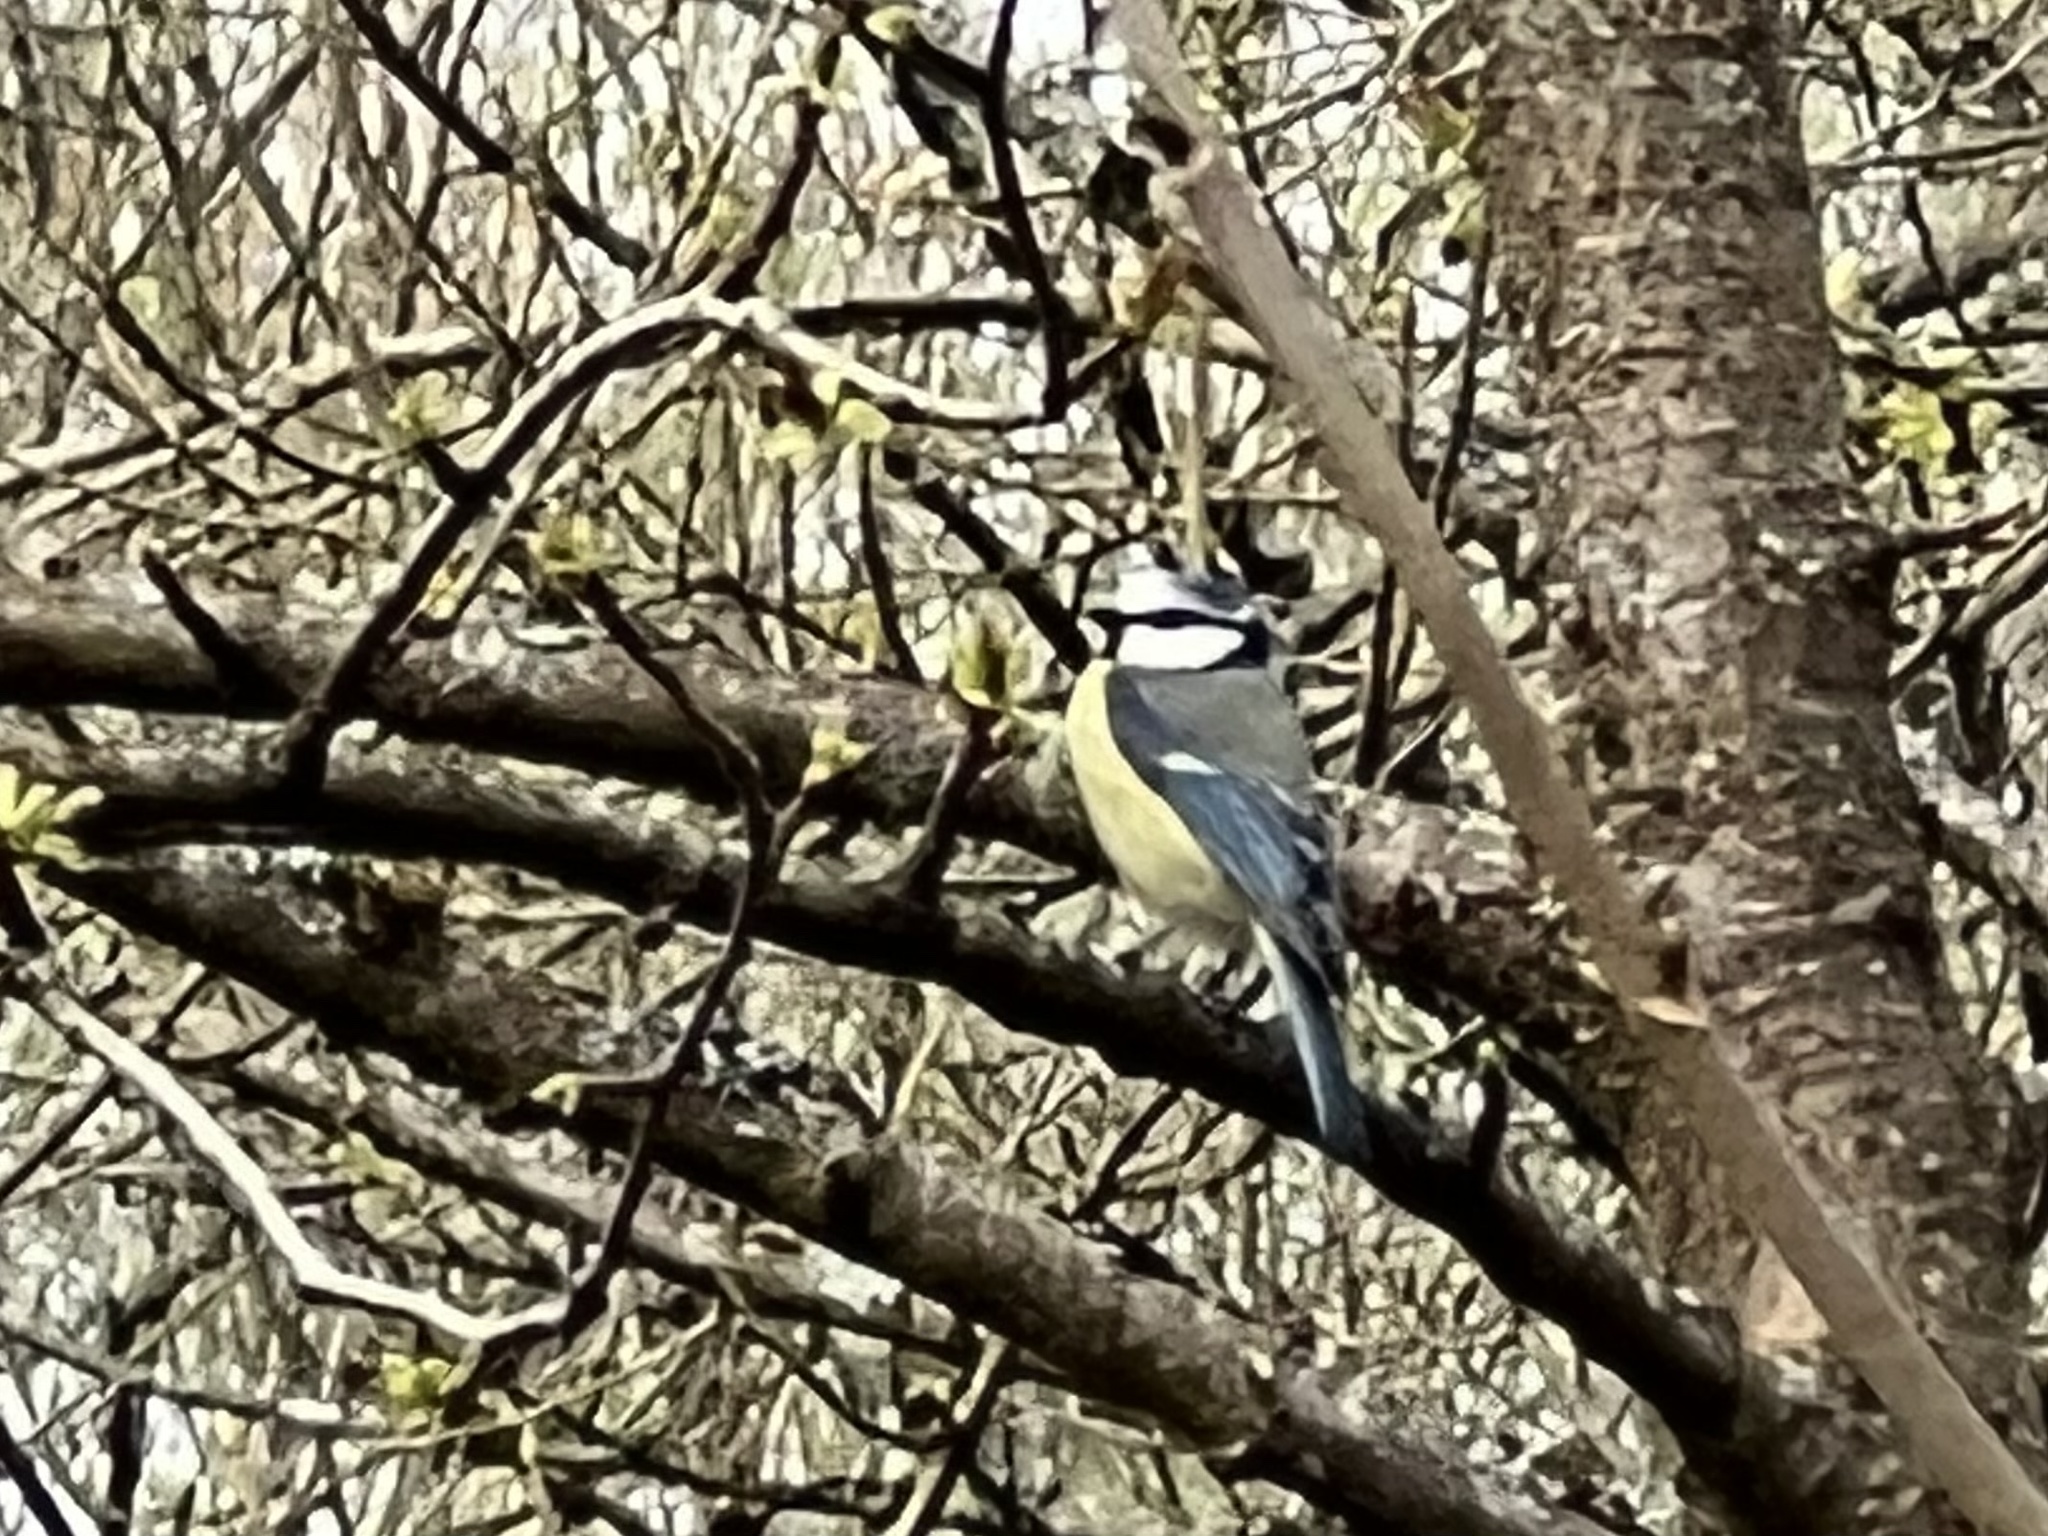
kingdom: Animalia
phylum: Chordata
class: Aves
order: Passeriformes
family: Paridae
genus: Cyanistes
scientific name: Cyanistes caeruleus
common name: Eurasian blue tit
